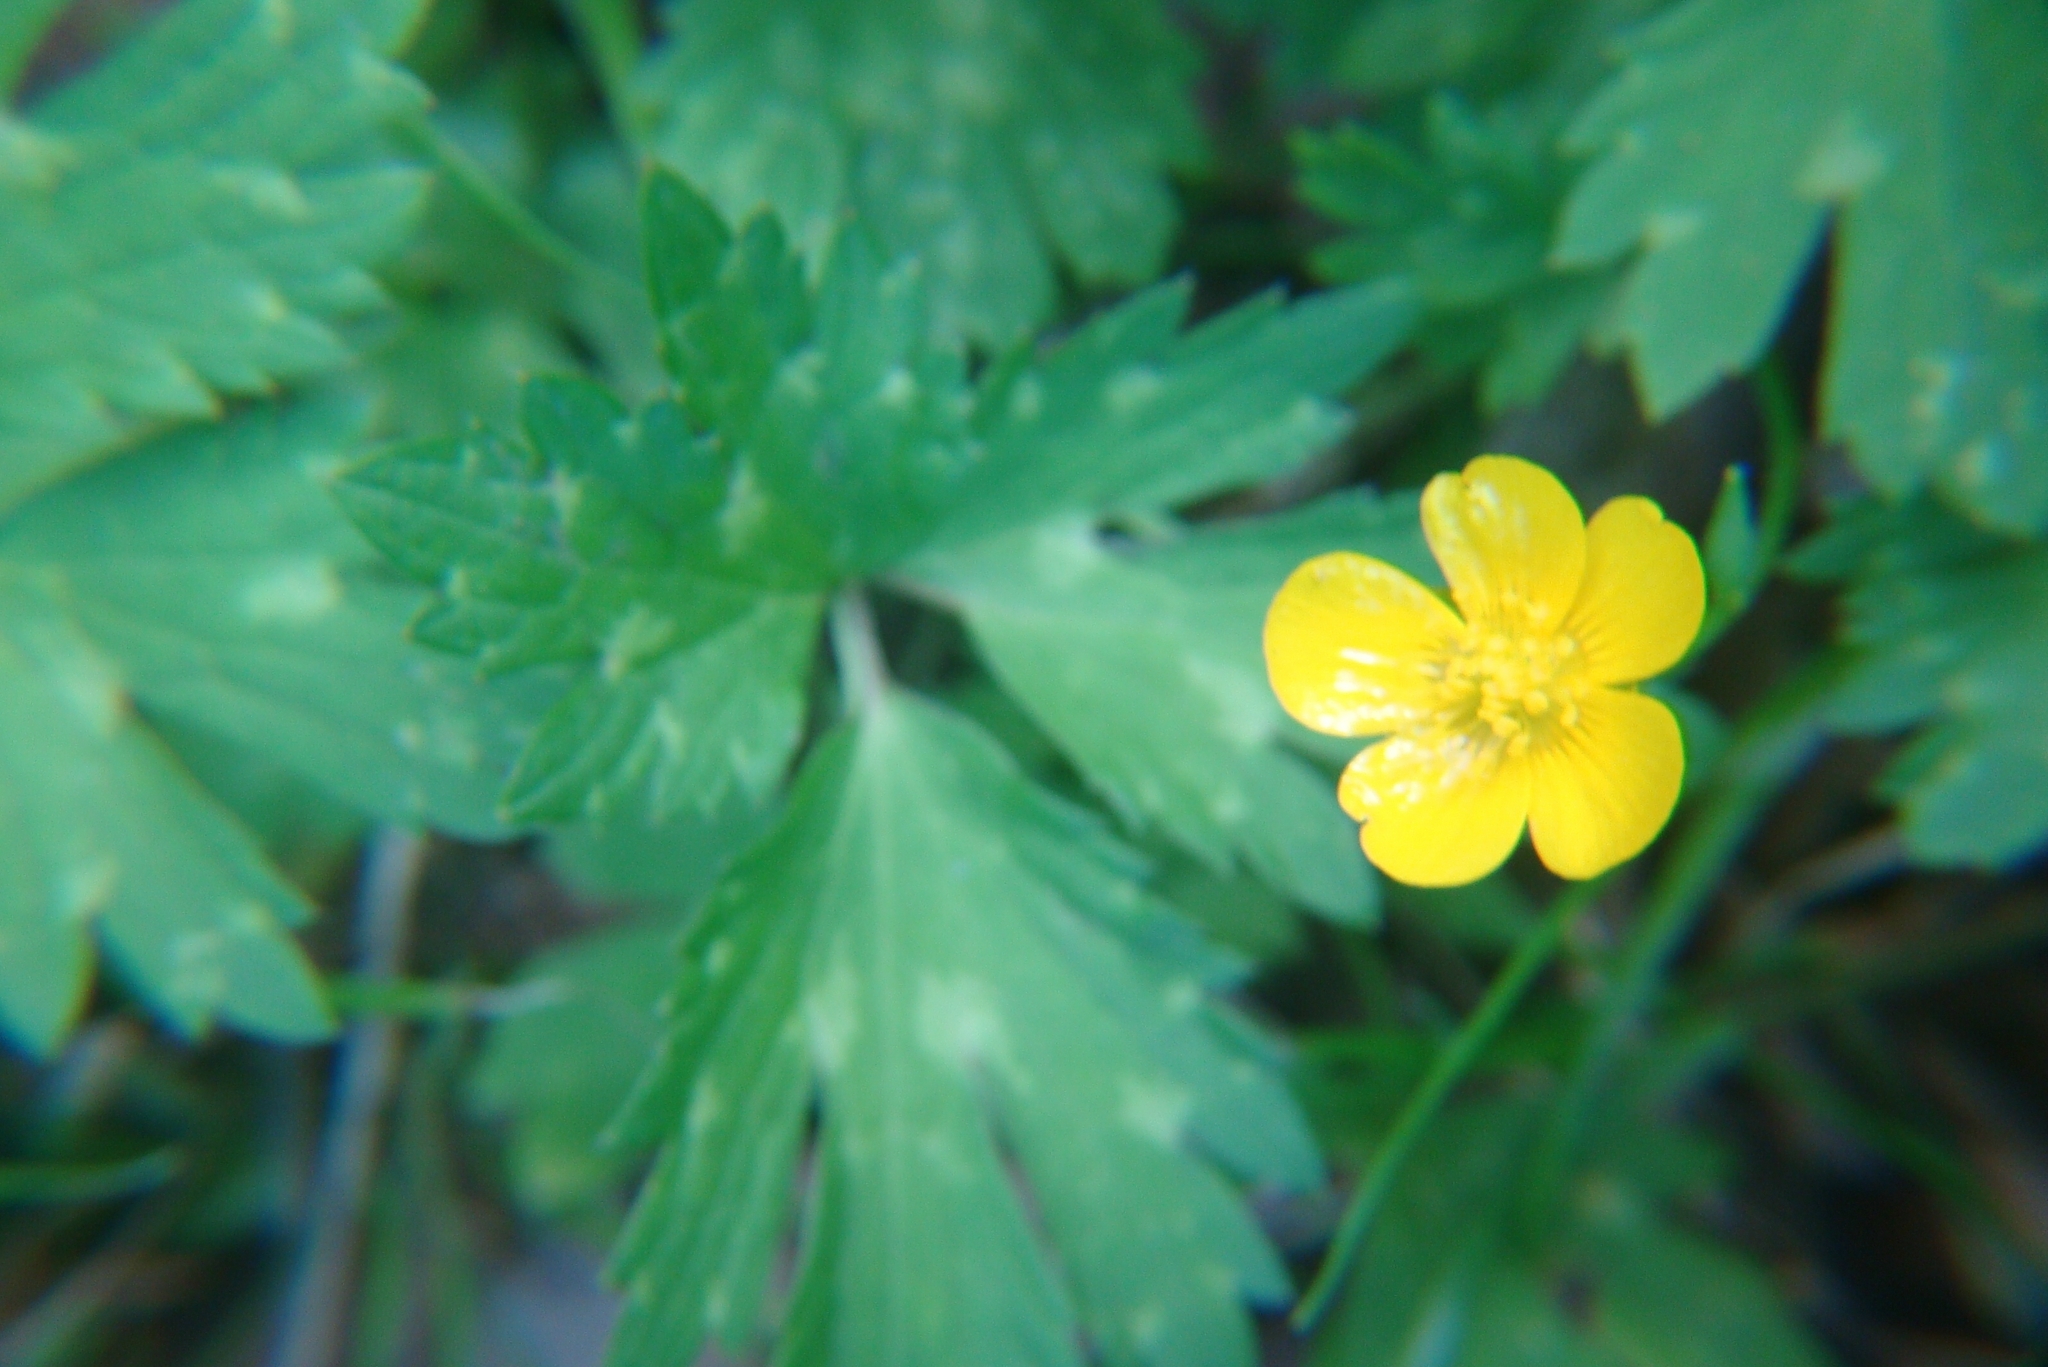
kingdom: Plantae
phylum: Tracheophyta
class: Magnoliopsida
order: Ranunculales
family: Ranunculaceae
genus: Ranunculus
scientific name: Ranunculus repens
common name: Creeping buttercup
